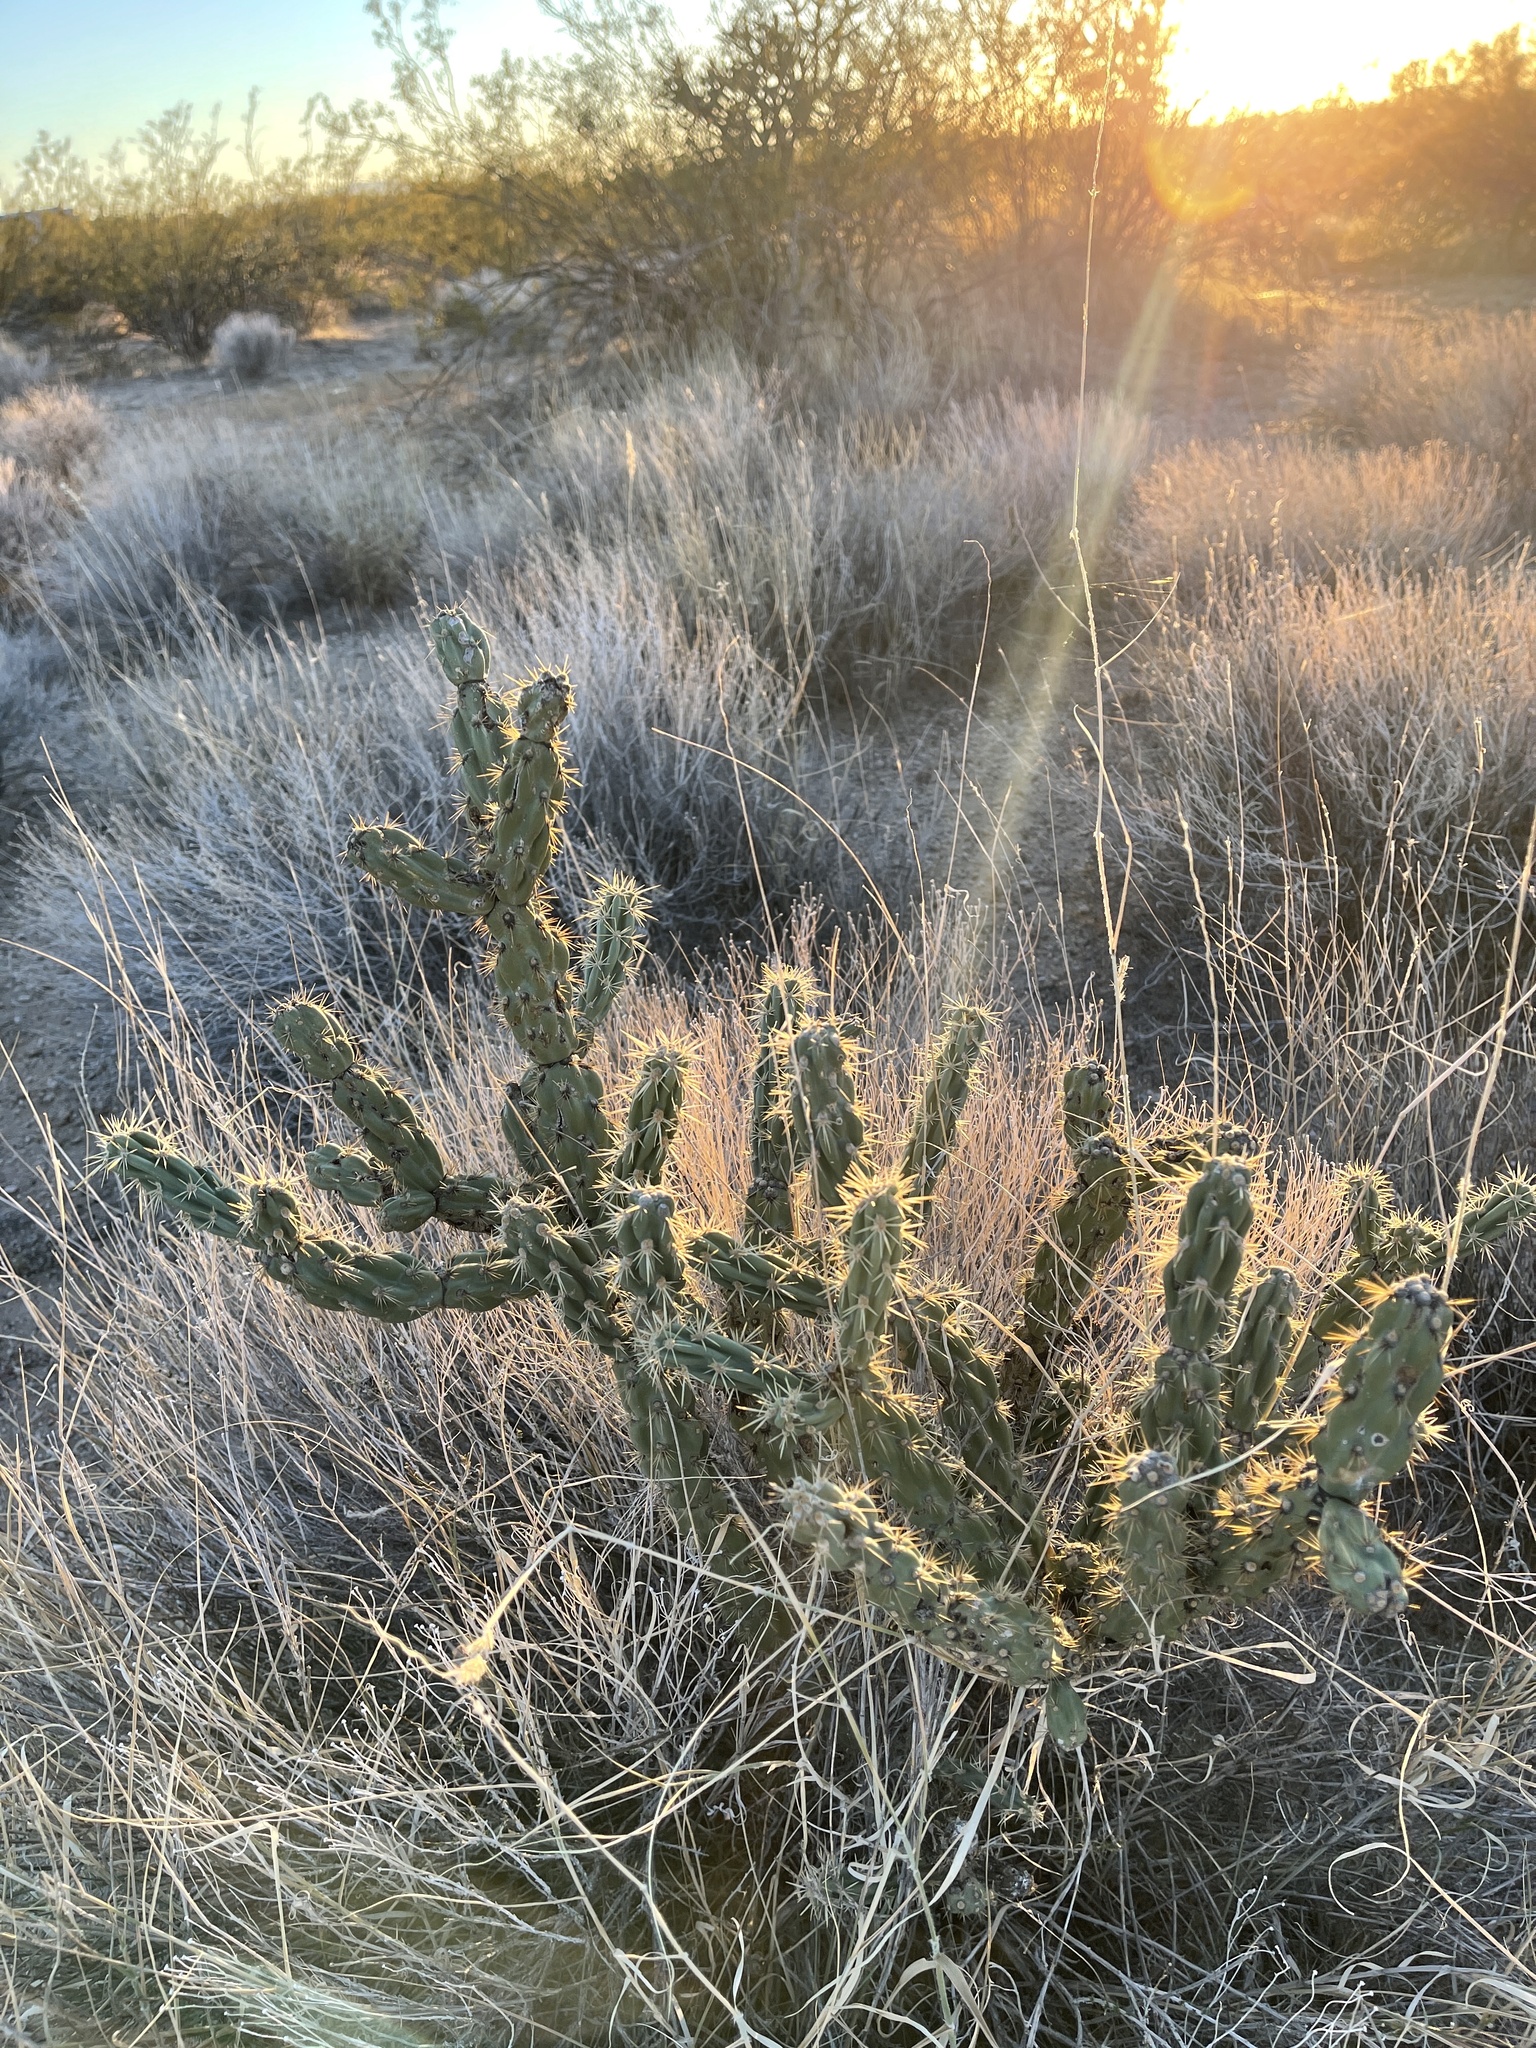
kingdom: Plantae
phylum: Tracheophyta
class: Magnoliopsida
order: Caryophyllales
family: Cactaceae
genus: Cylindropuntia
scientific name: Cylindropuntia acanthocarpa
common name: Buckhorn cholla
